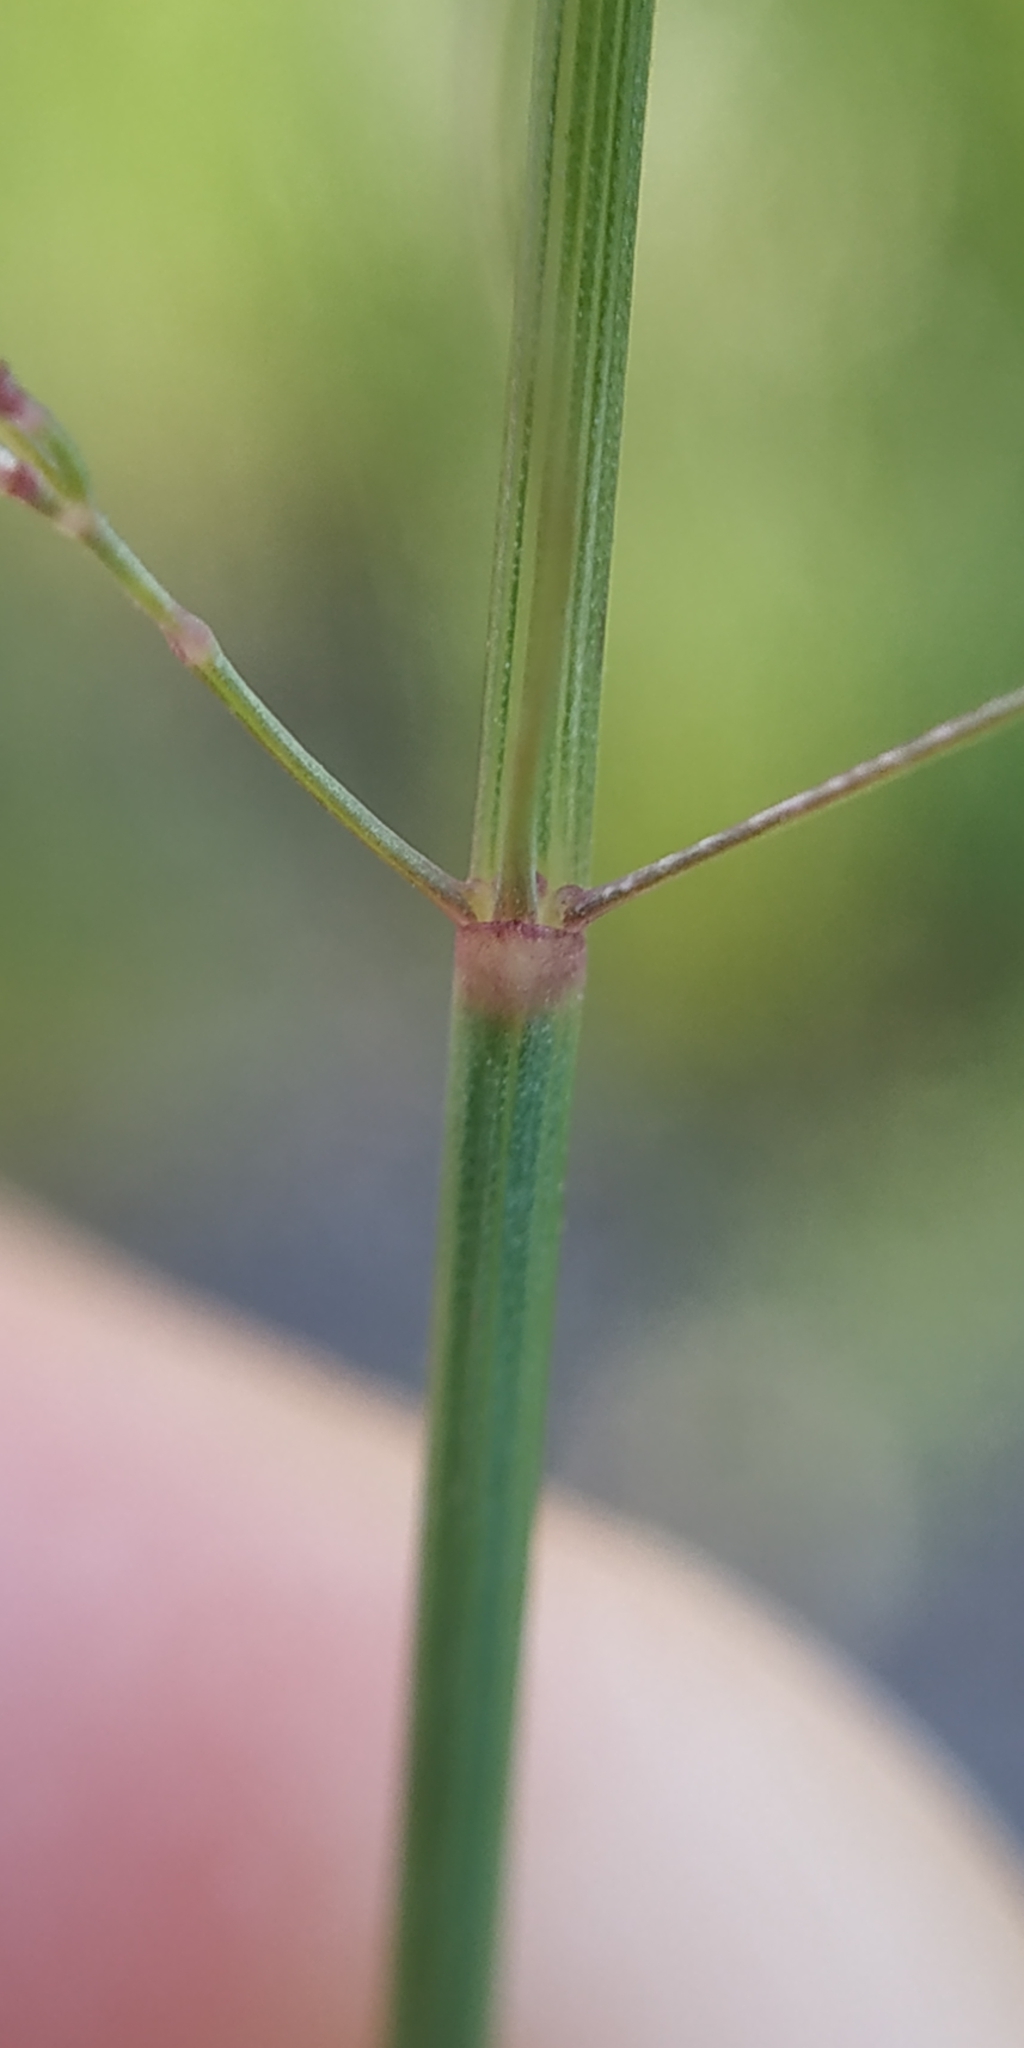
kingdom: Plantae
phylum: Tracheophyta
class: Liliopsida
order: Poales
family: Poaceae
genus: Poa
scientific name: Poa pratensis
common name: Kentucky bluegrass
